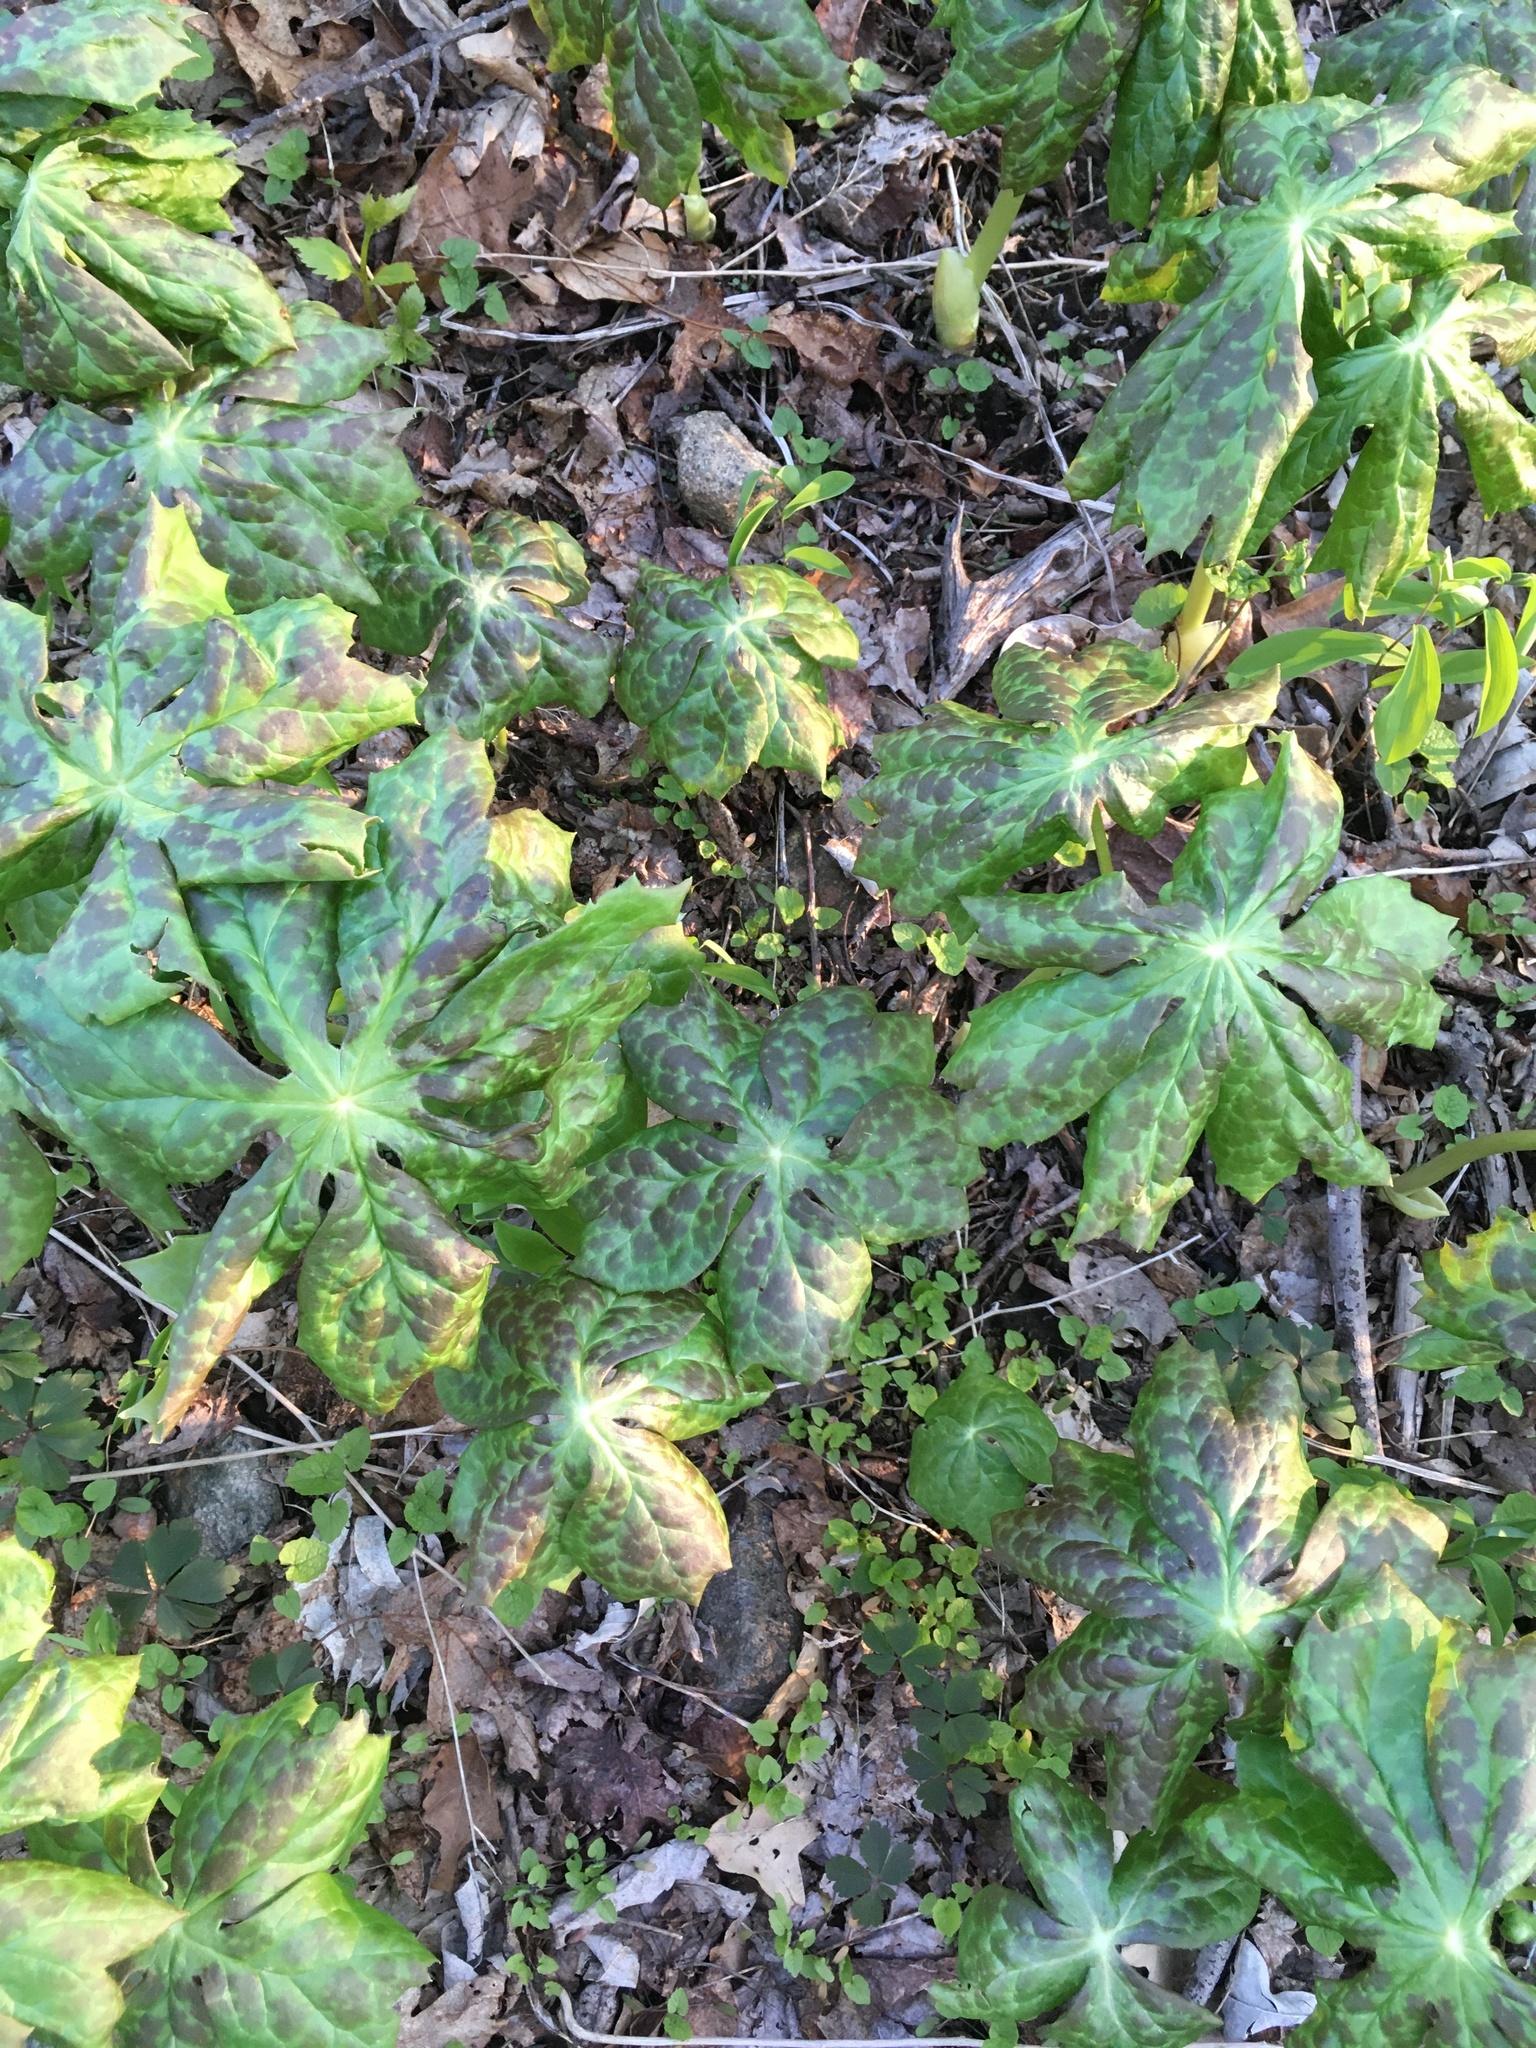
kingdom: Plantae
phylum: Tracheophyta
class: Magnoliopsida
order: Ranunculales
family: Berberidaceae
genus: Podophyllum
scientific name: Podophyllum peltatum
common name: Wild mandrake
